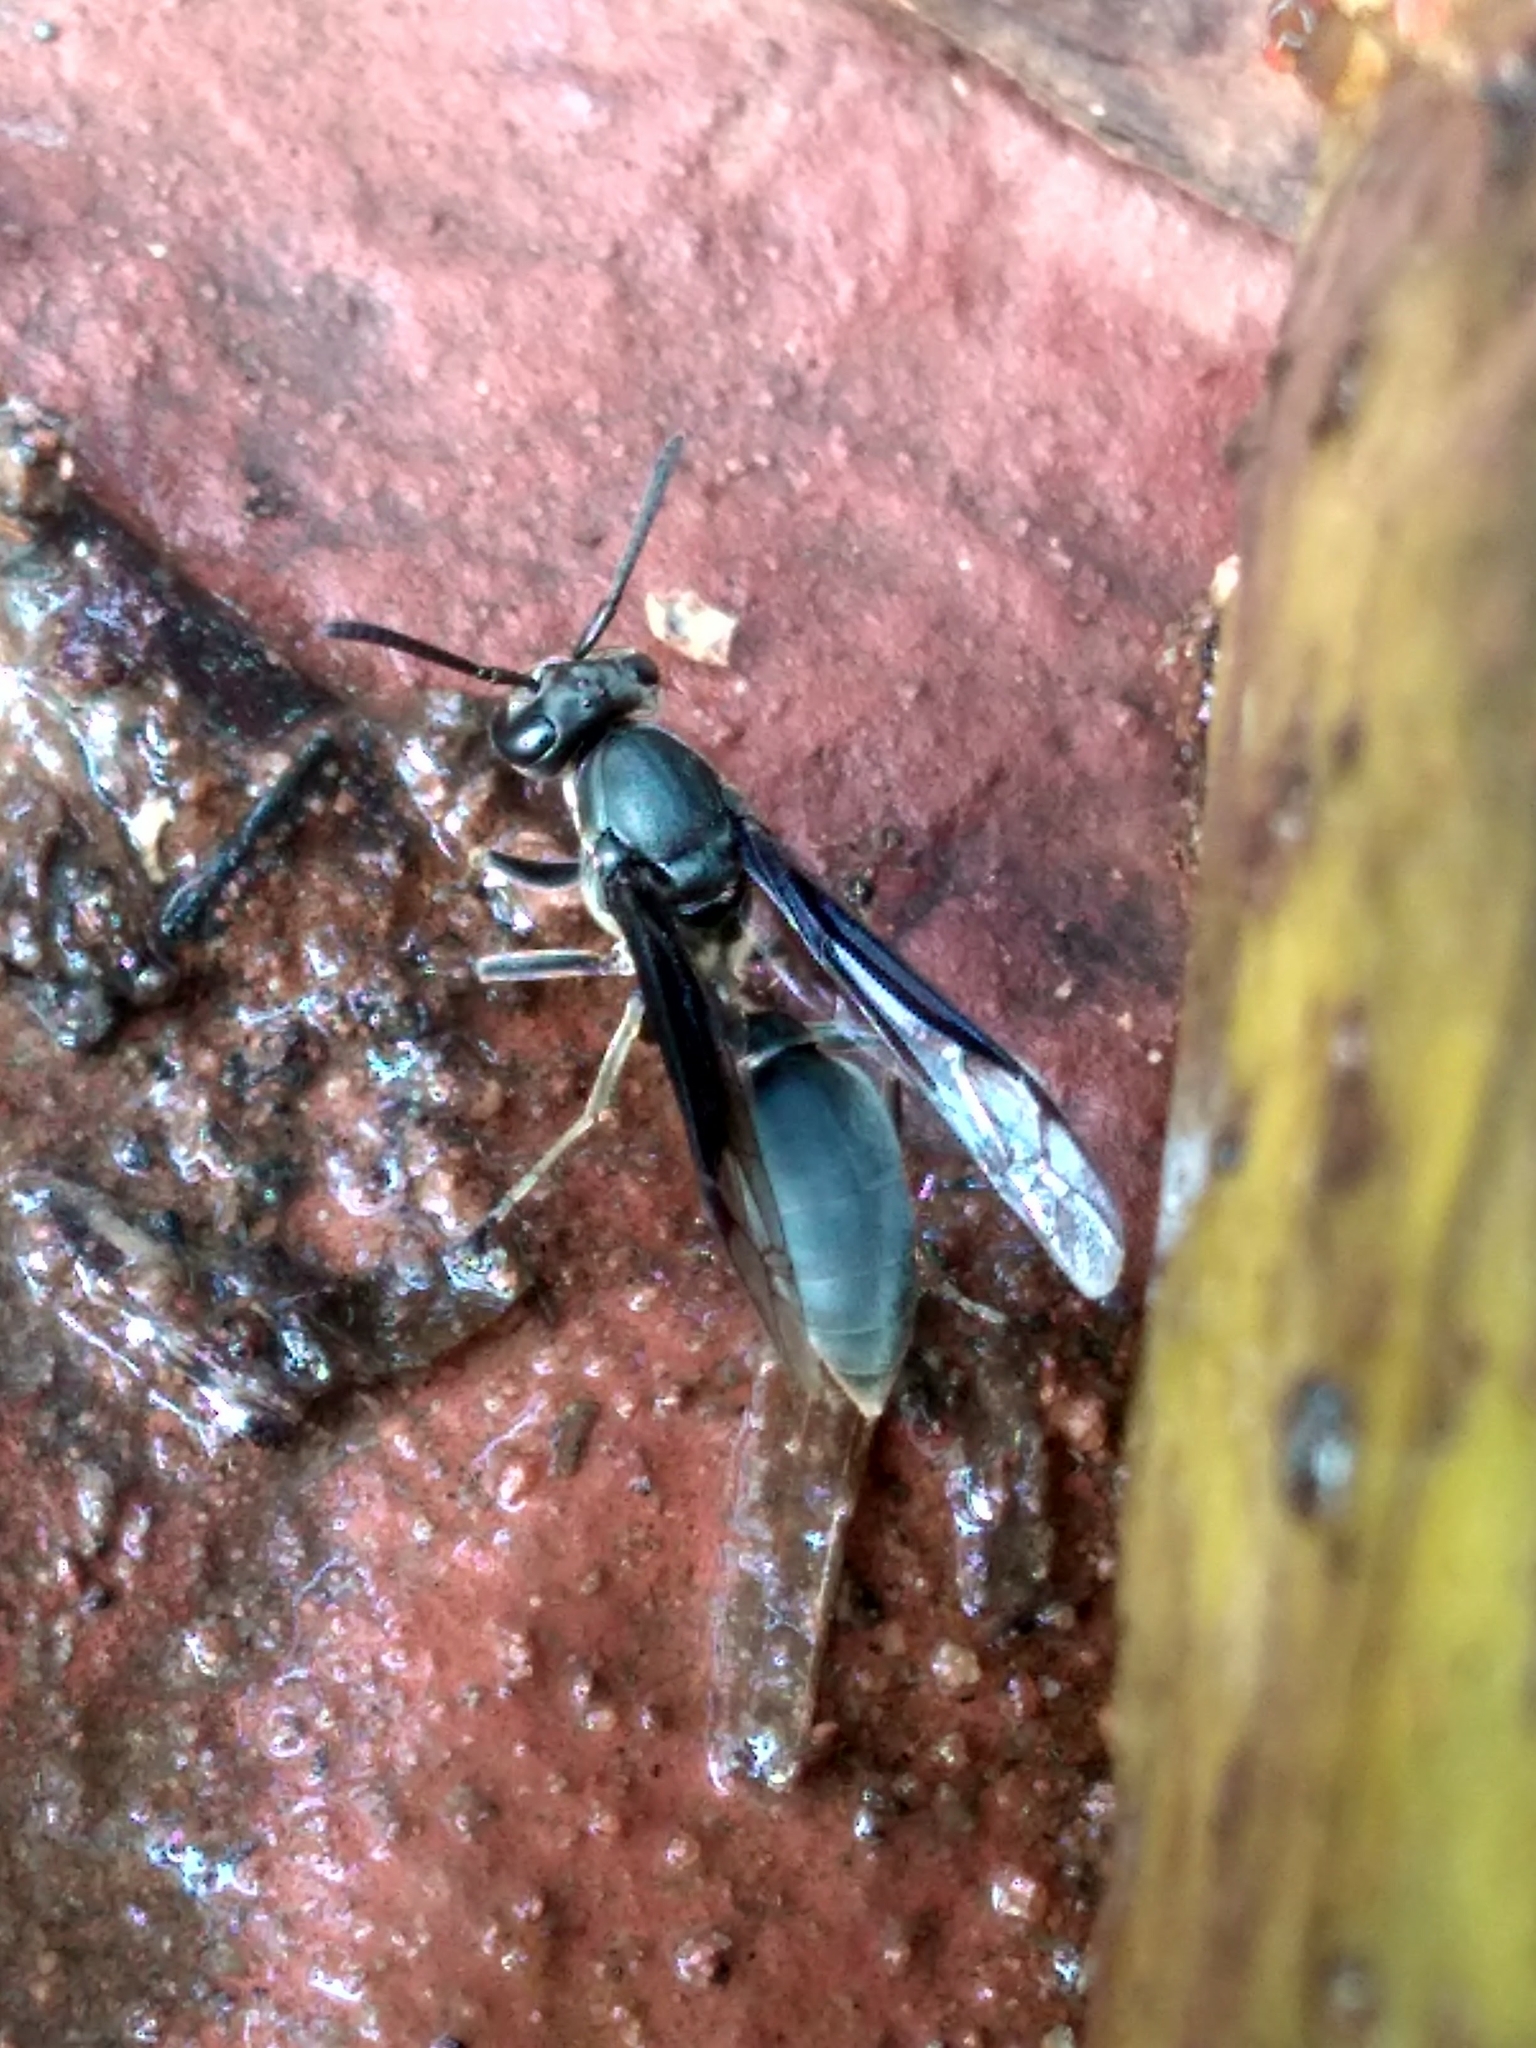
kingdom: Animalia
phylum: Arthropoda
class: Insecta
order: Hymenoptera
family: Eumenidae
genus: Polybia
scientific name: Polybia ignobilis
